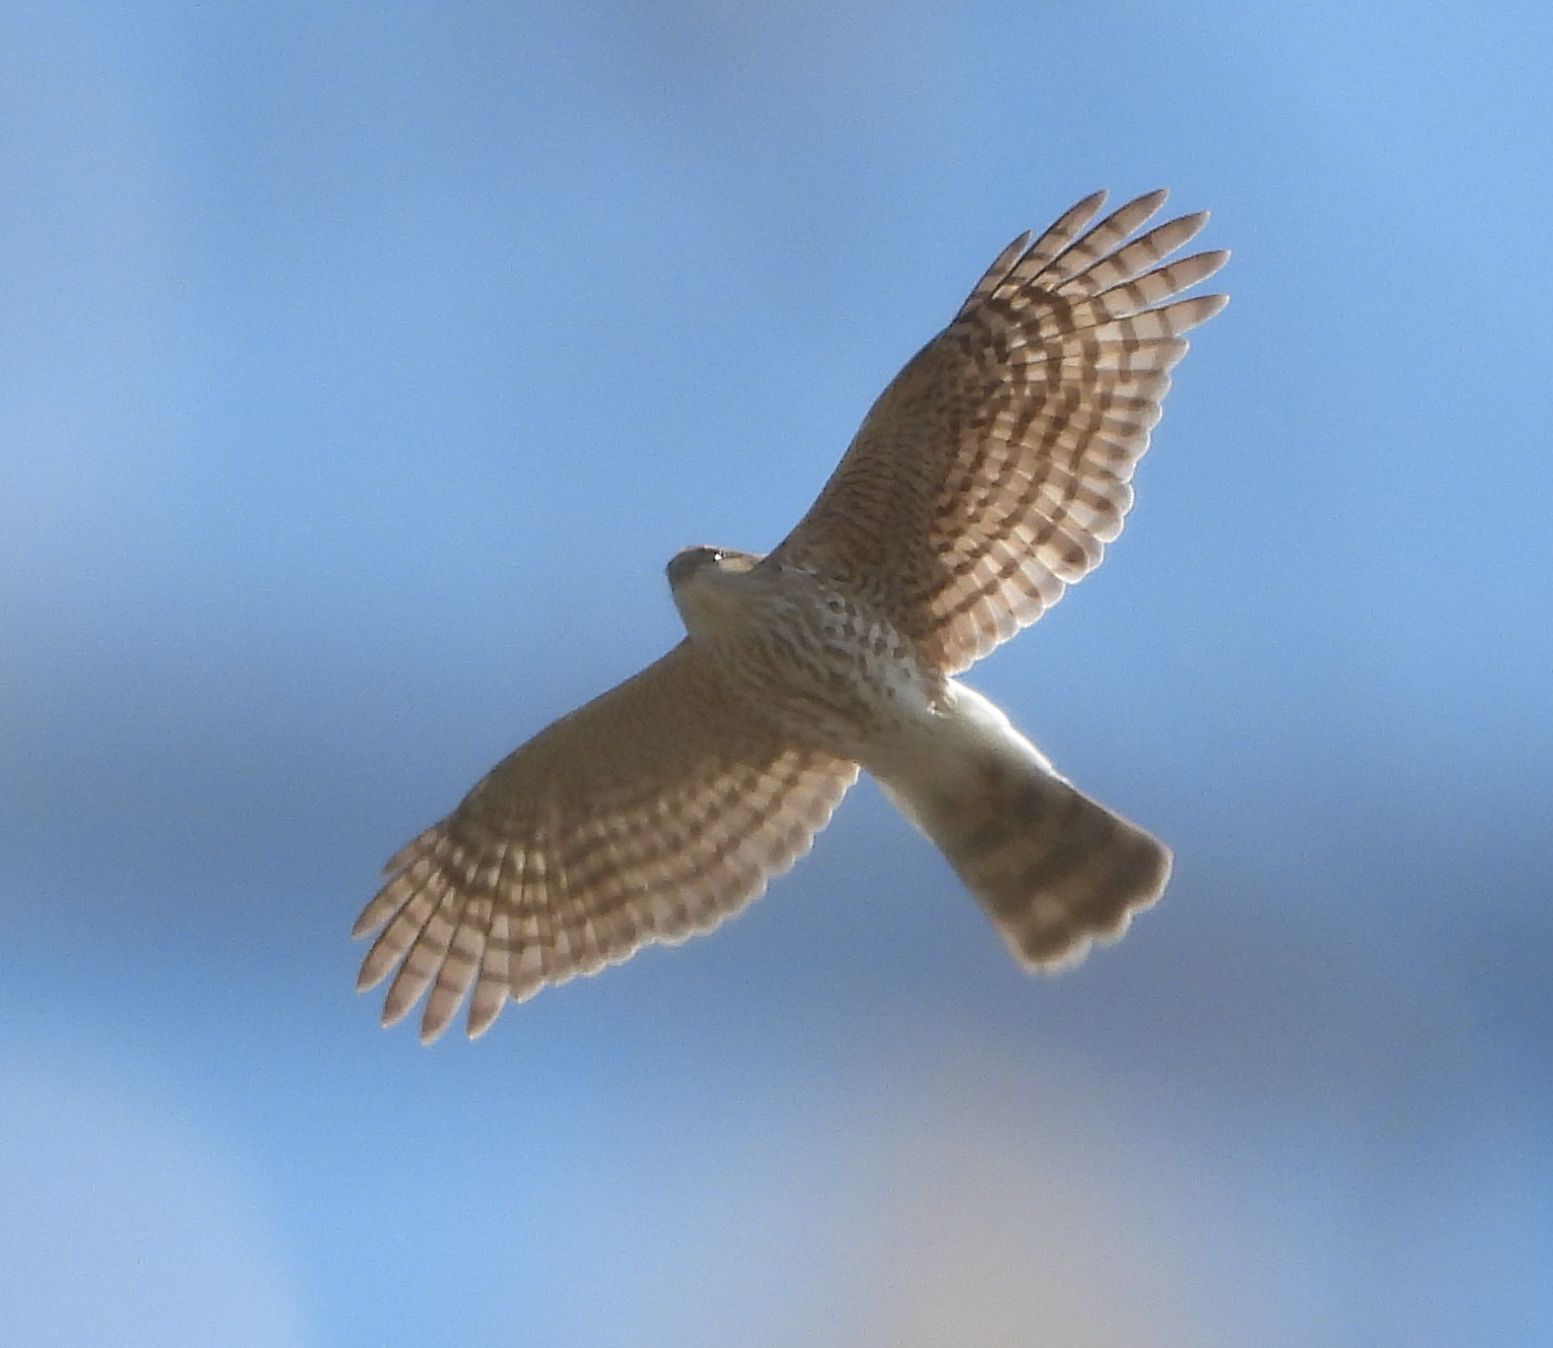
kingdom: Animalia
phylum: Chordata
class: Aves
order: Accipitriformes
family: Accipitridae
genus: Accipiter
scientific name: Accipiter striatus
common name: Sharp-shinned hawk
